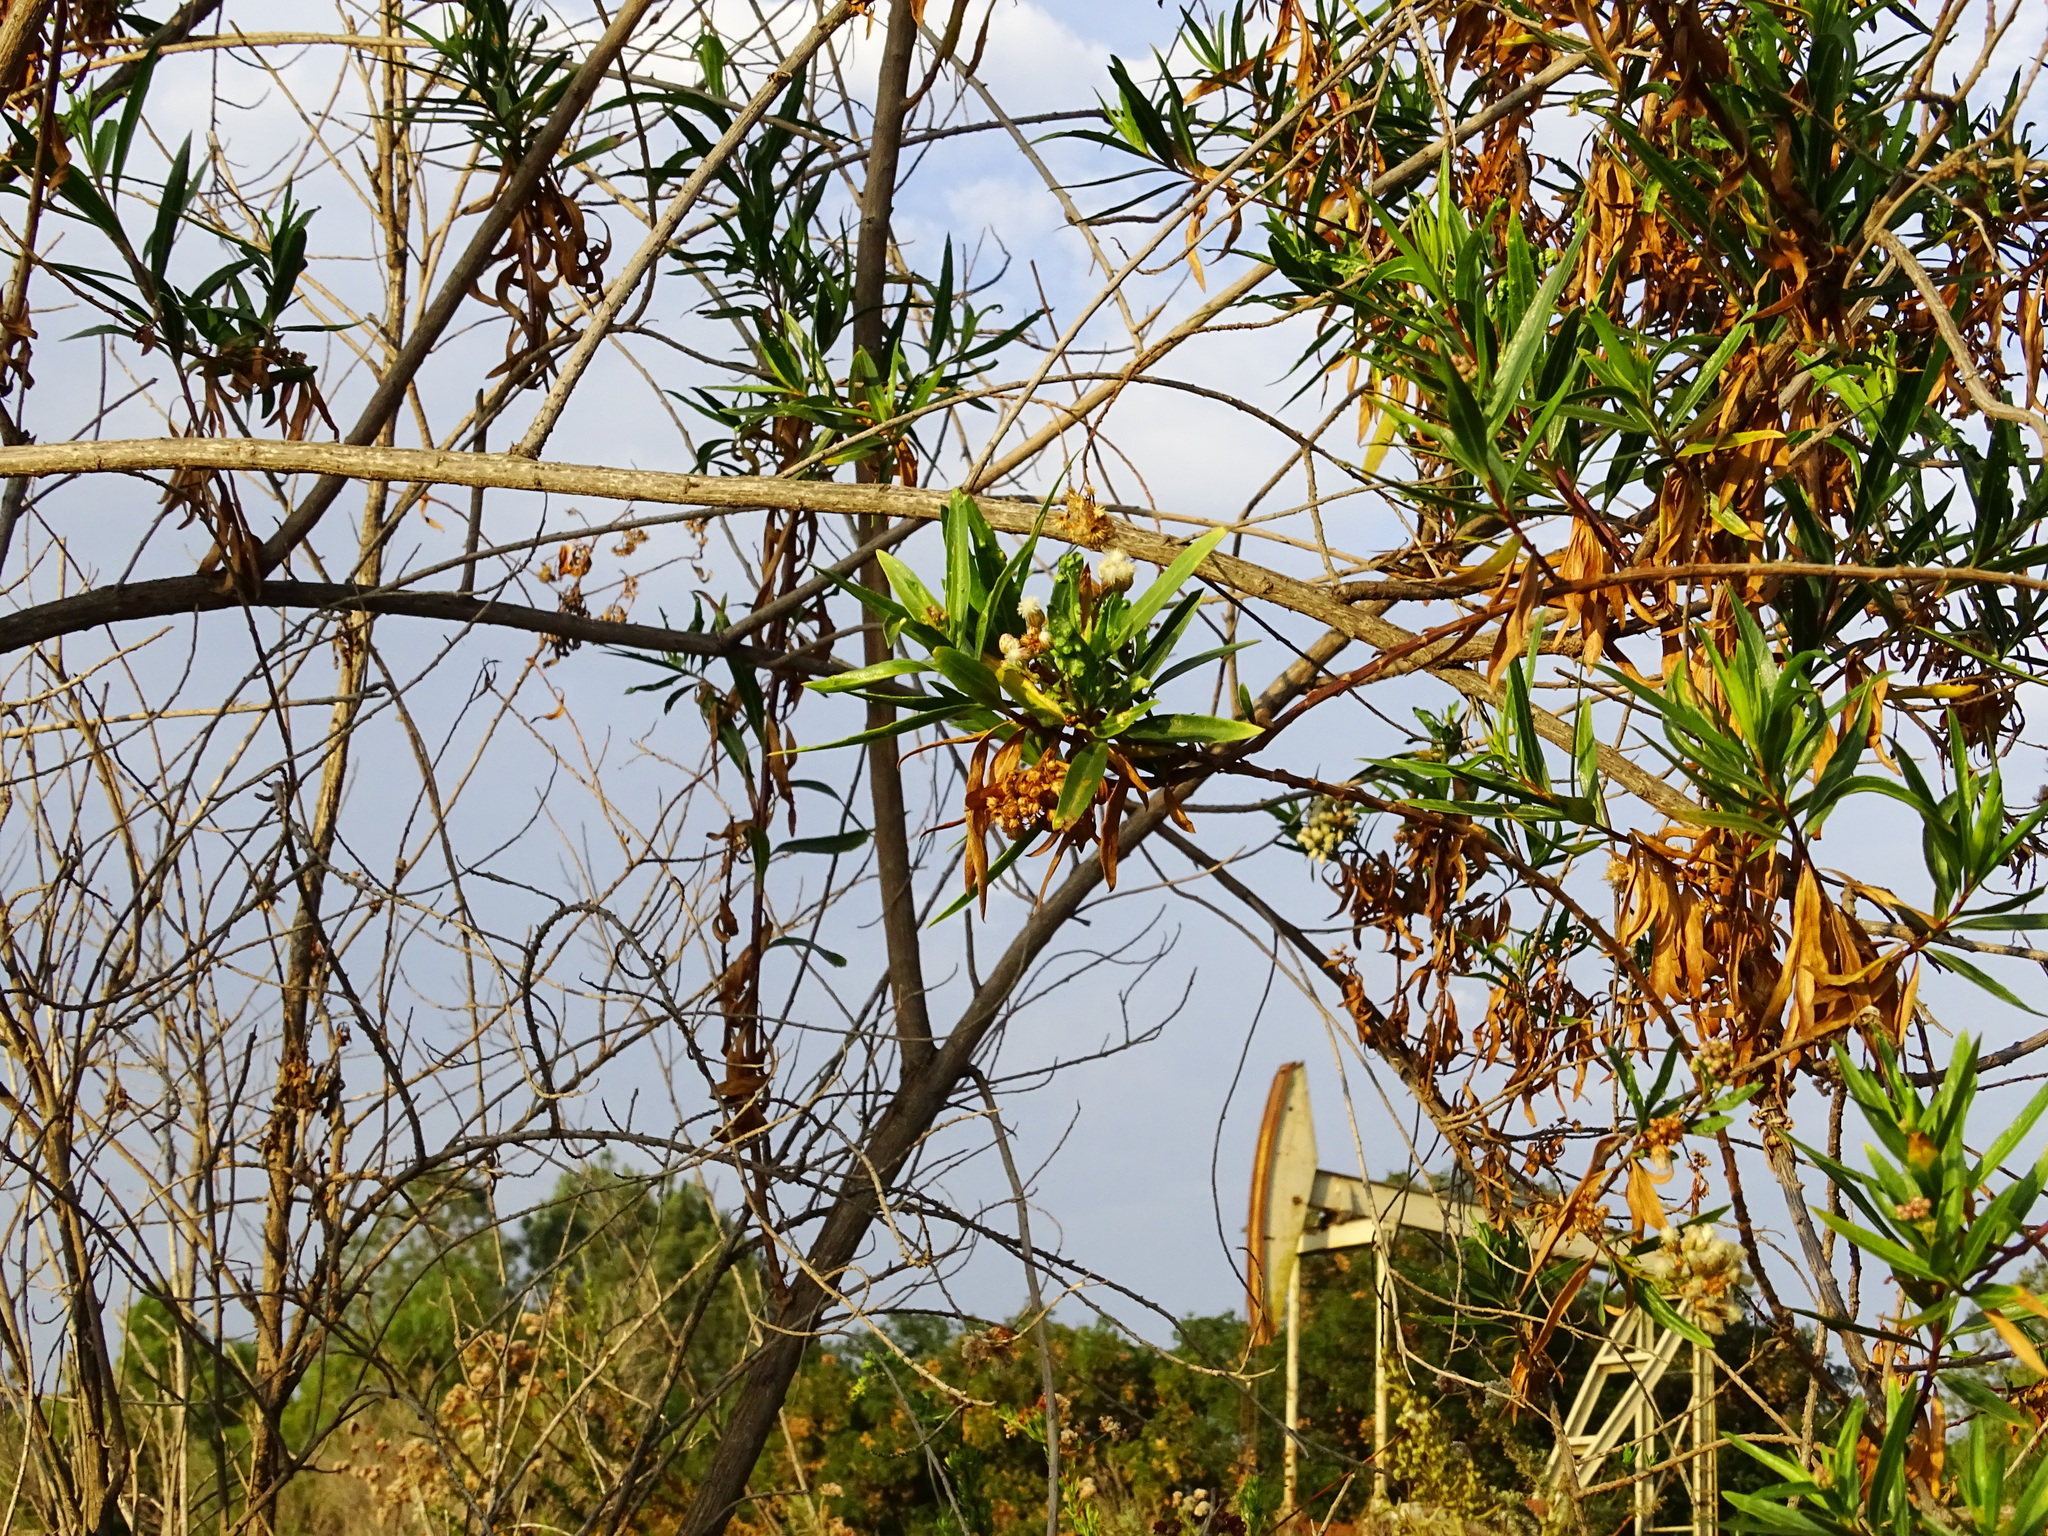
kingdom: Plantae
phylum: Tracheophyta
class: Magnoliopsida
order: Asterales
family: Asteraceae
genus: Baccharis
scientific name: Baccharis salicifolia
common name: Sticky baccharis
